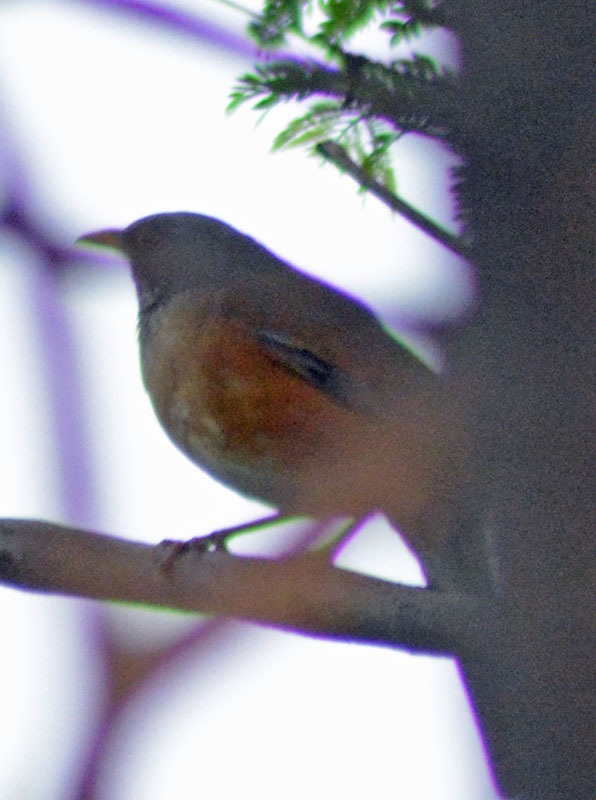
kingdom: Animalia
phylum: Chordata
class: Aves
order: Passeriformes
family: Turdidae
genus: Turdus
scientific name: Turdus rufopalliatus
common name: Rufous-backed robin
